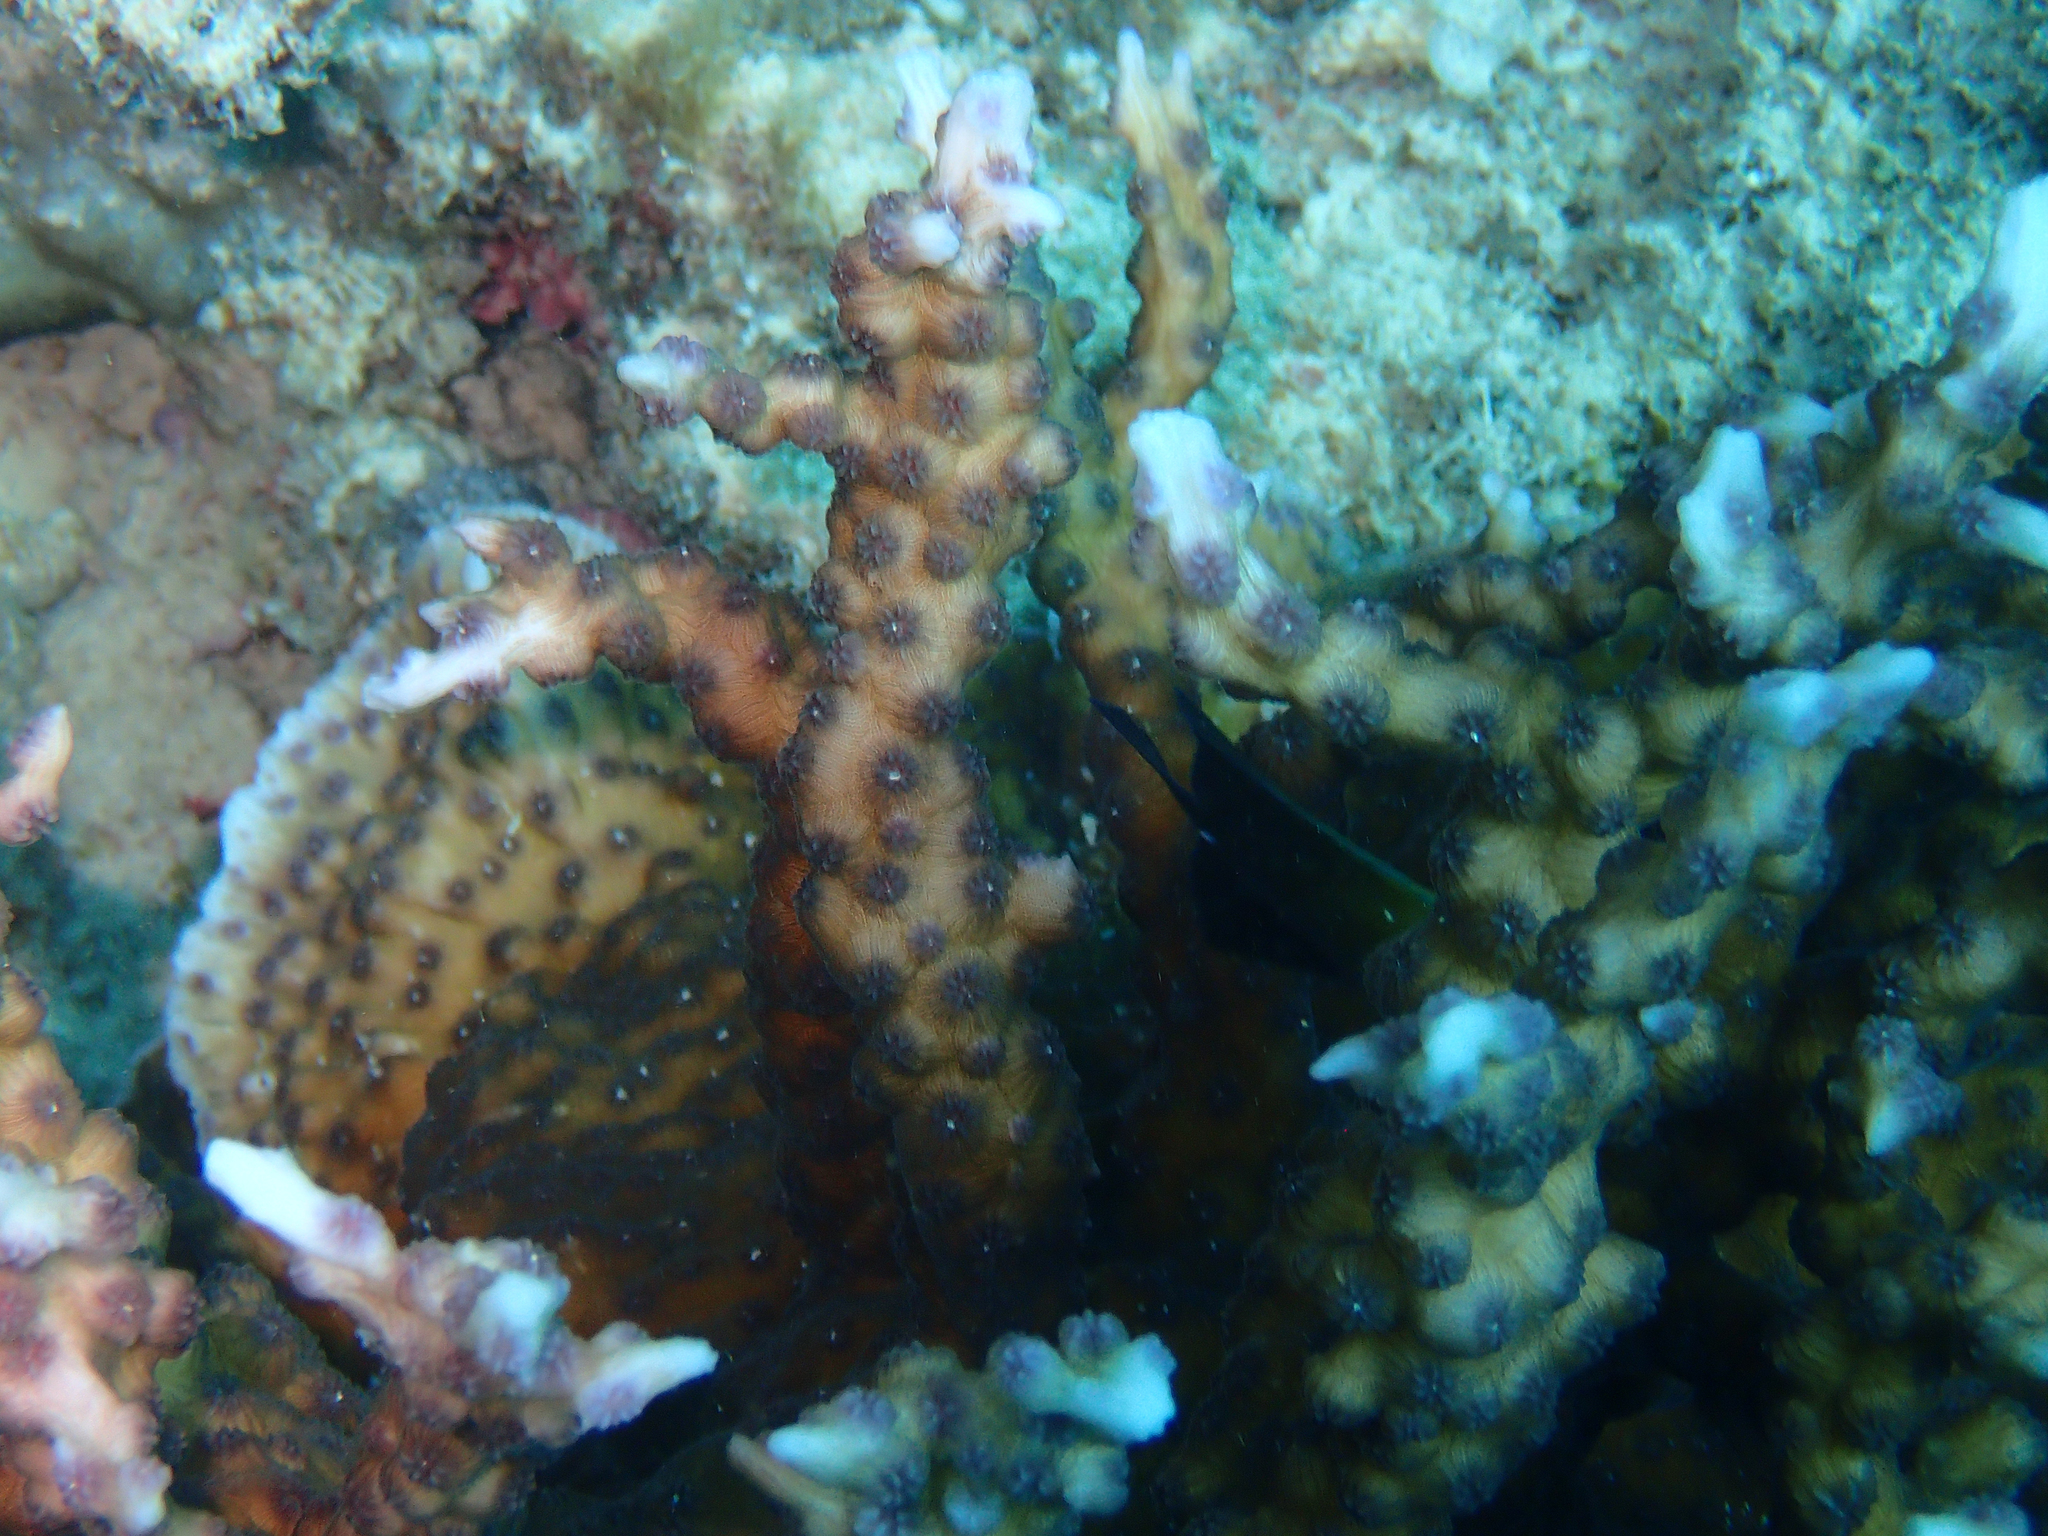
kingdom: Animalia
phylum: Cnidaria
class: Anthozoa
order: Scleractinia
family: Merulinidae
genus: Echinopora
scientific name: Echinopora mammiformis
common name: Hedgehog coral
